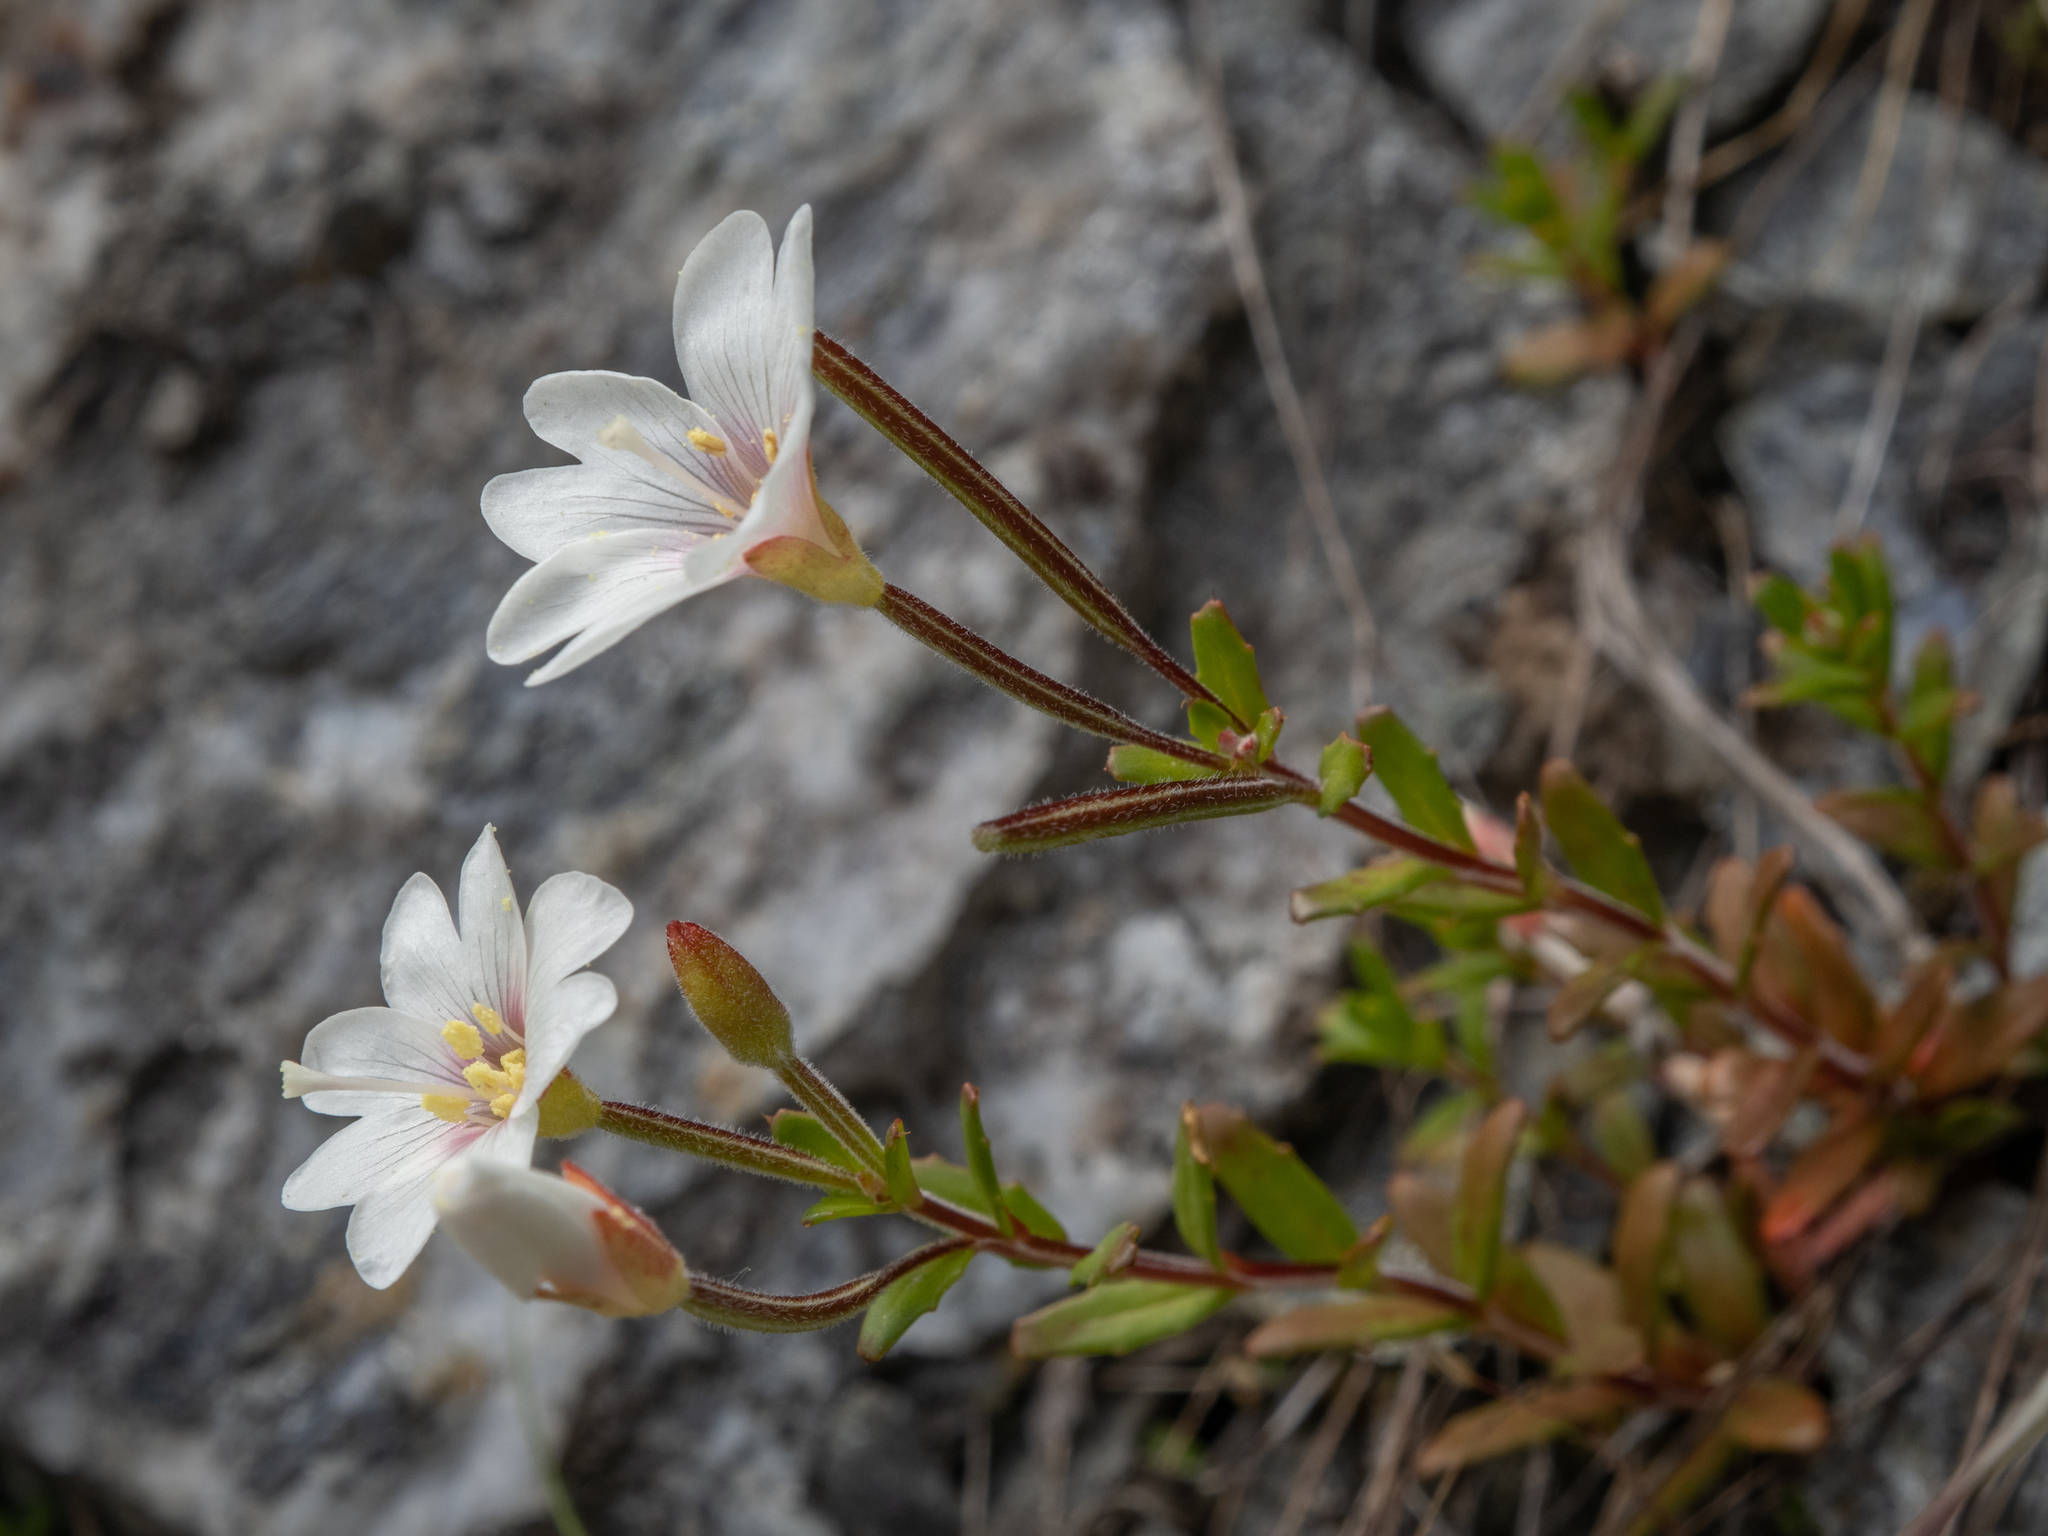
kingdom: Plantae
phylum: Tracheophyta
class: Magnoliopsida
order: Myrtales
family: Onagraceae
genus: Epilobium
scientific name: Epilobium hectorii
